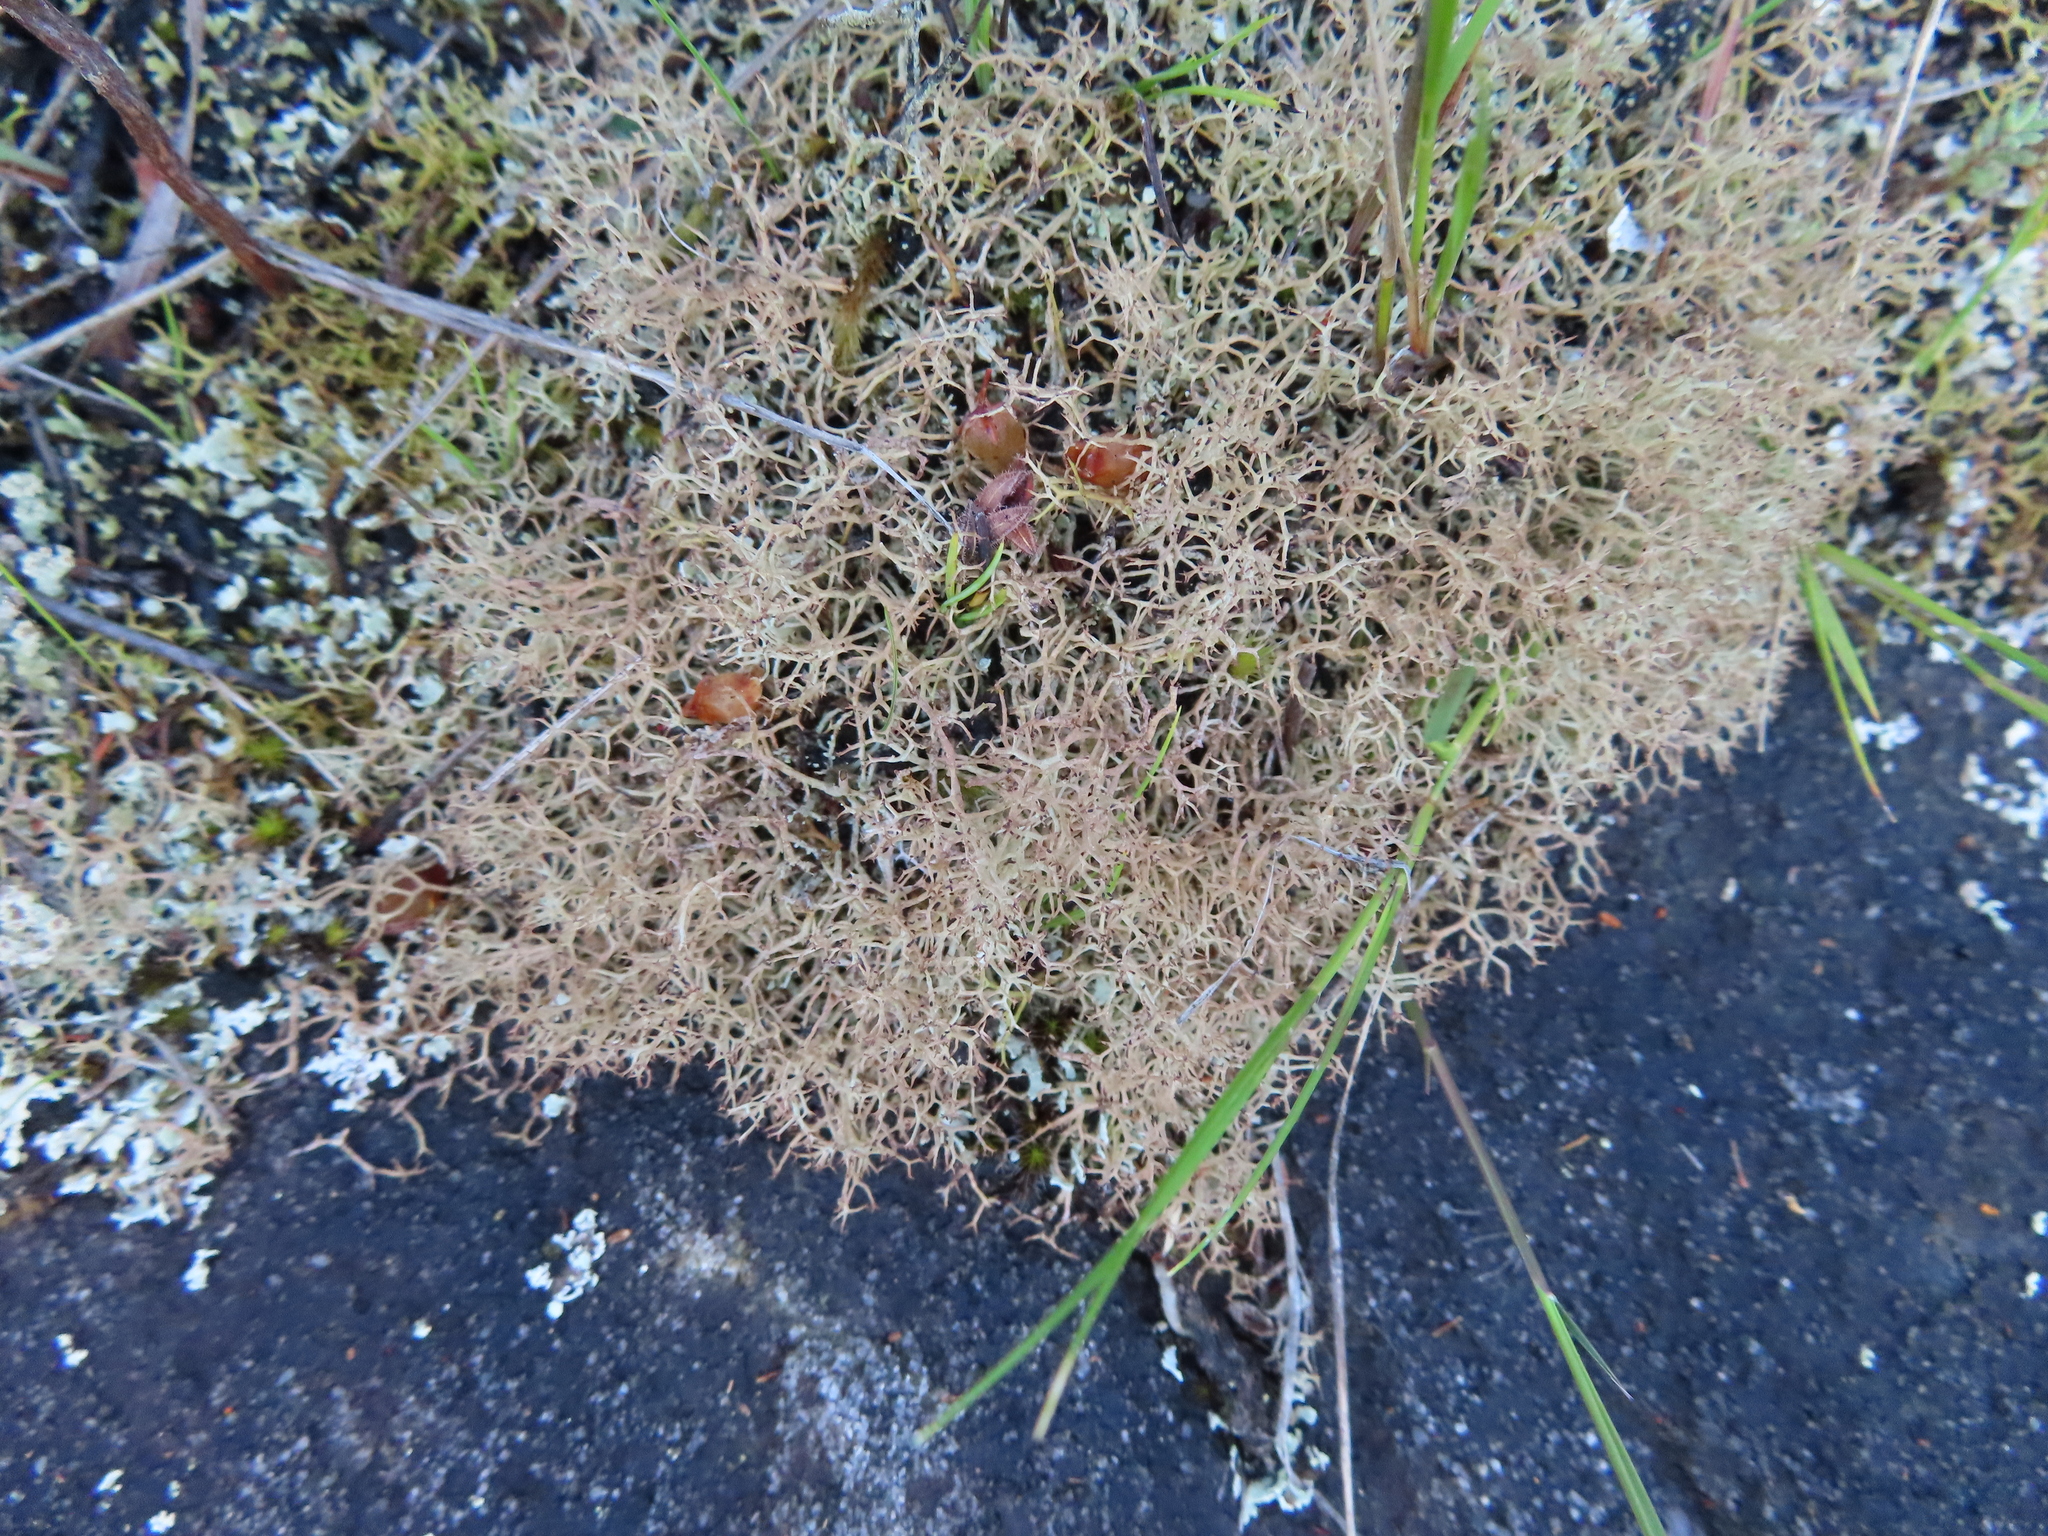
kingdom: Fungi
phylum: Ascomycota
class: Lecanoromycetes
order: Lecanorales
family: Cladoniaceae
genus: Cladonia
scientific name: Cladonia
